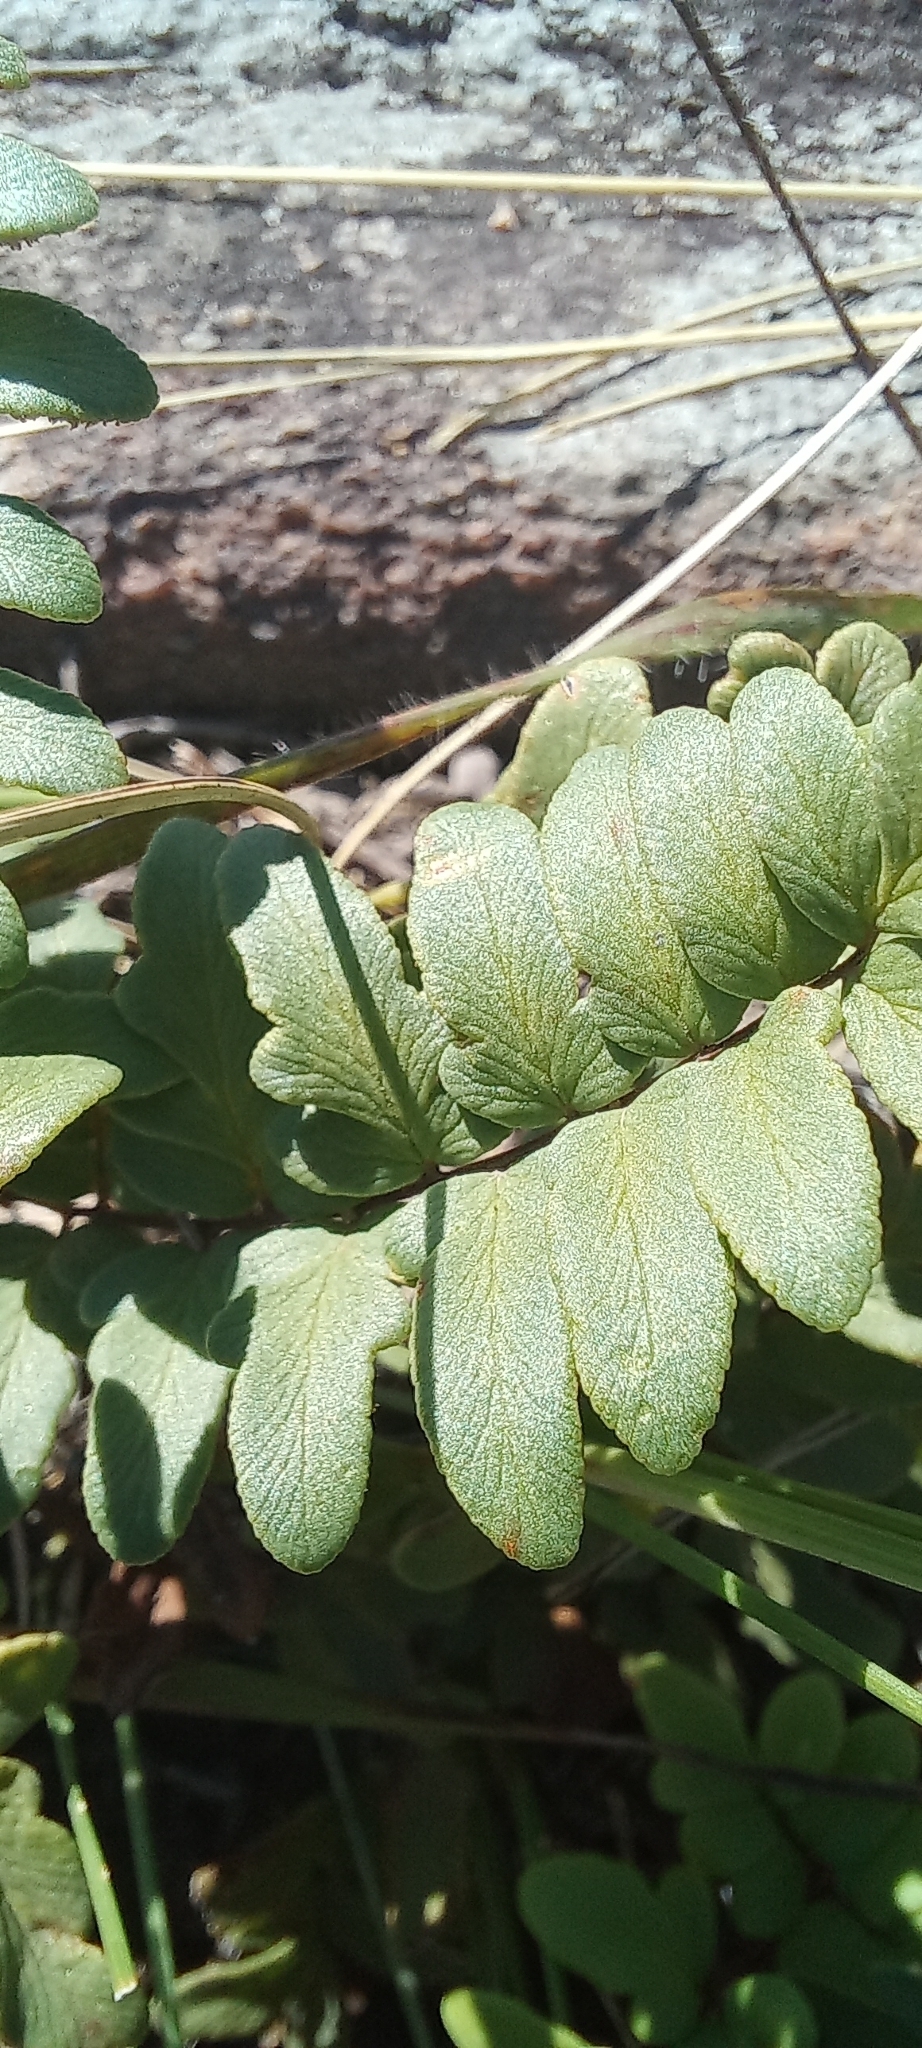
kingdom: Plantae
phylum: Tracheophyta
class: Polypodiopsida
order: Polypodiales
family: Pteridaceae
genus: Cheilanthes
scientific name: Cheilanthes viridis
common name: Green cliffbrake
